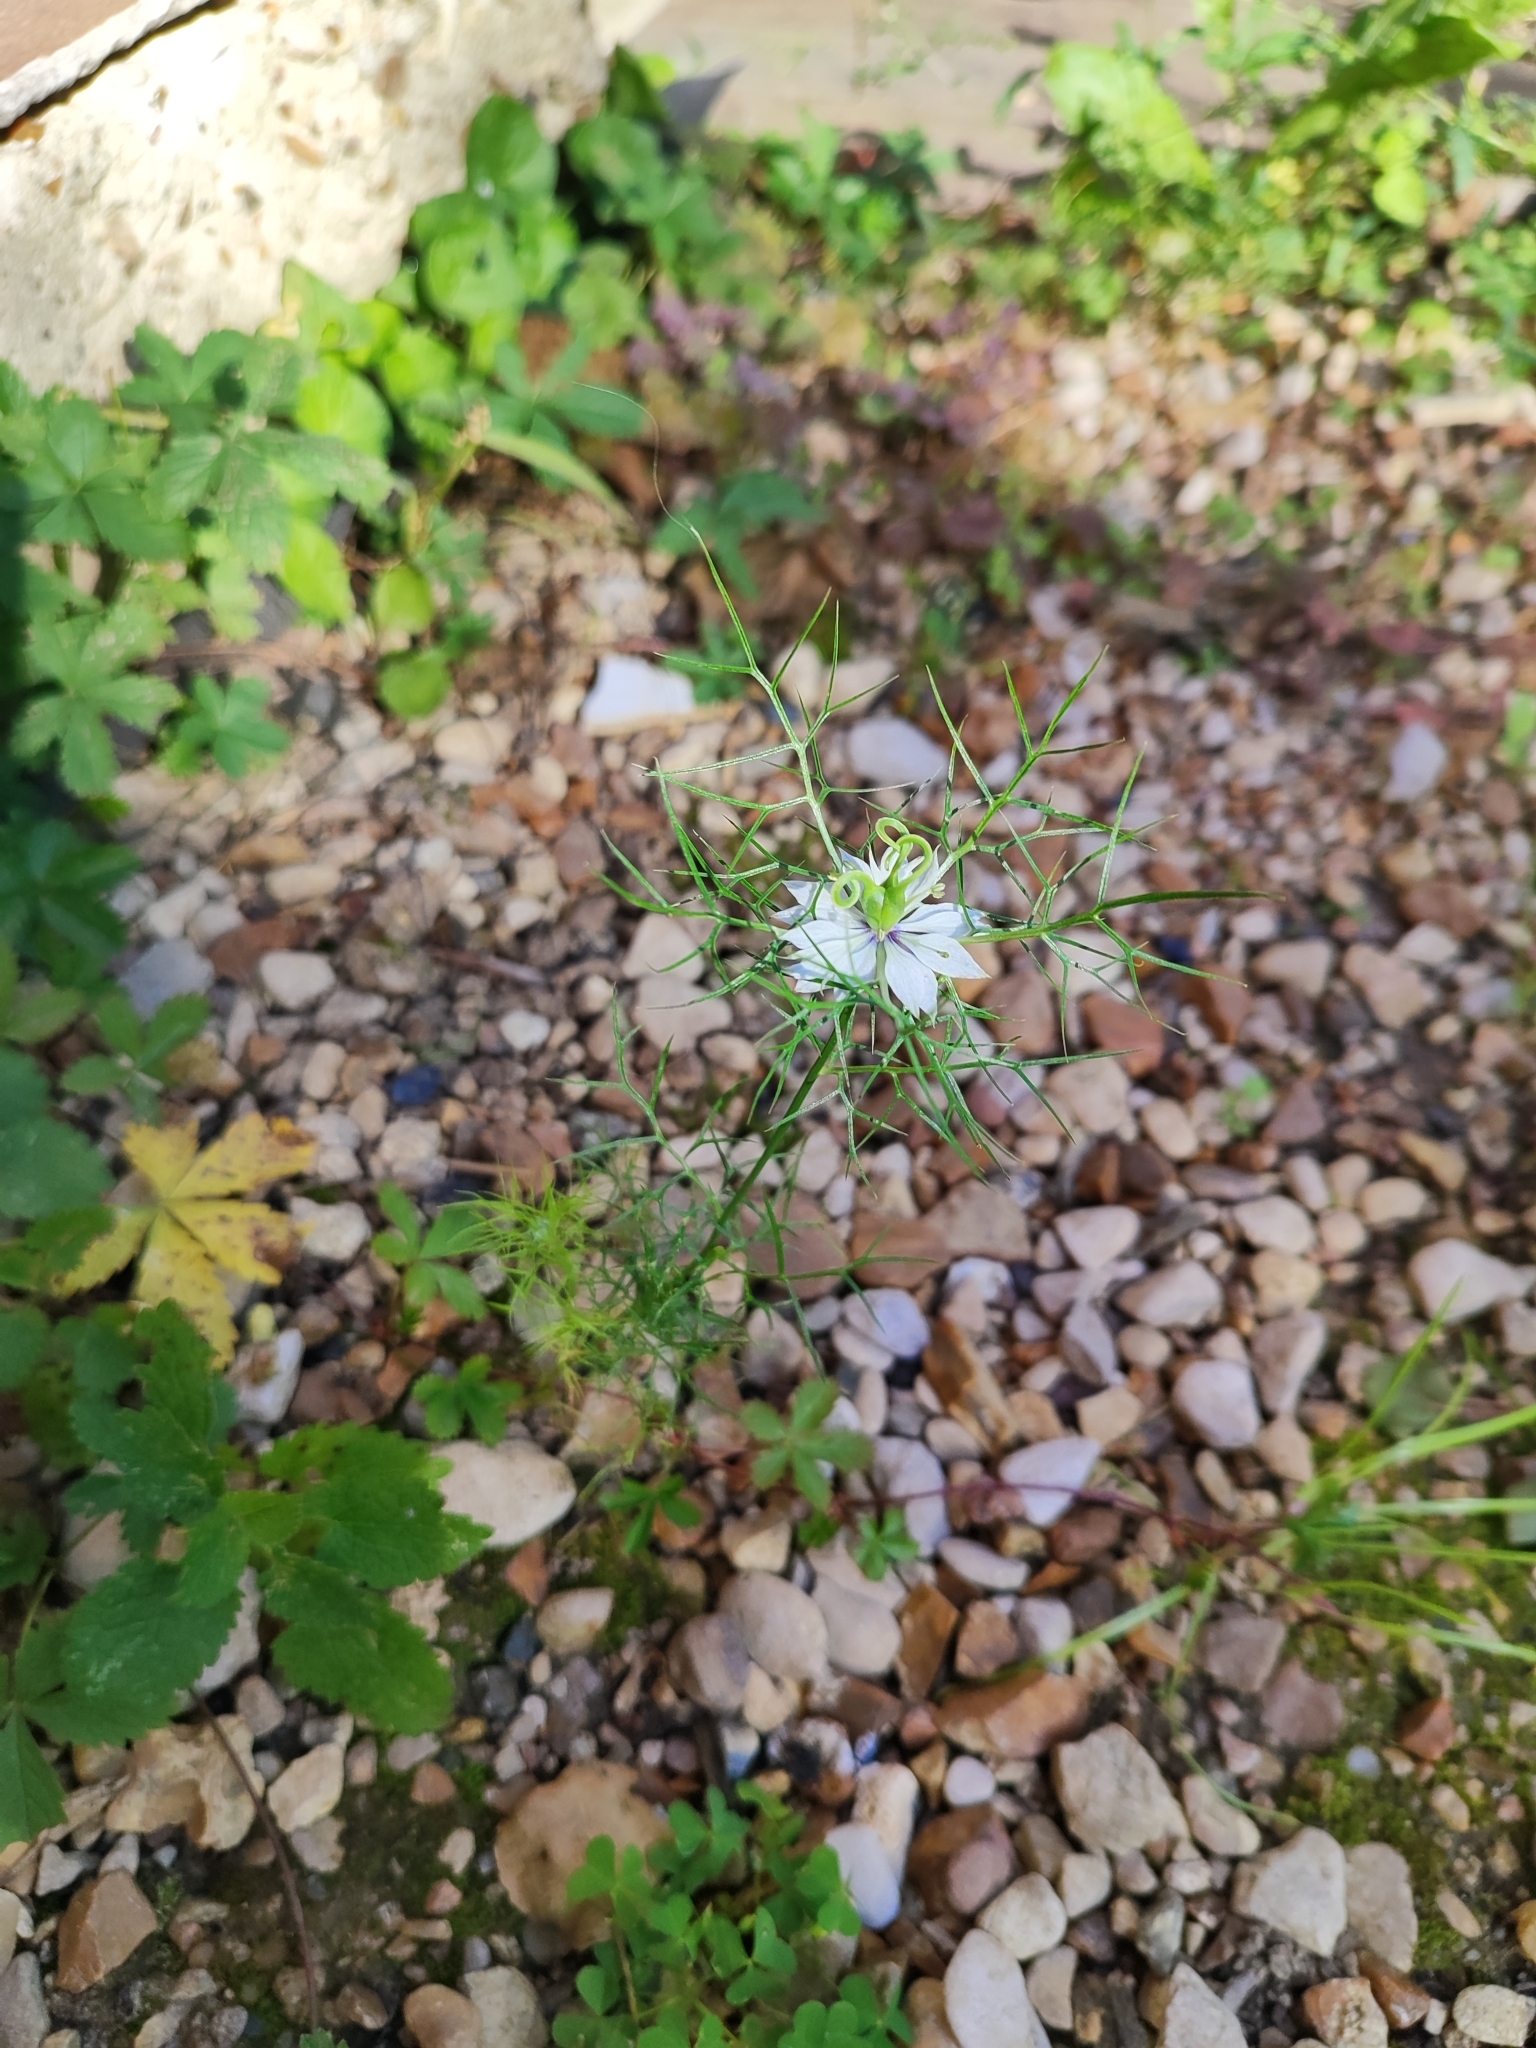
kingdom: Plantae
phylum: Tracheophyta
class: Magnoliopsida
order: Ranunculales
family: Ranunculaceae
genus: Nigella
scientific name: Nigella damascena
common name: Love-in-a-mist
